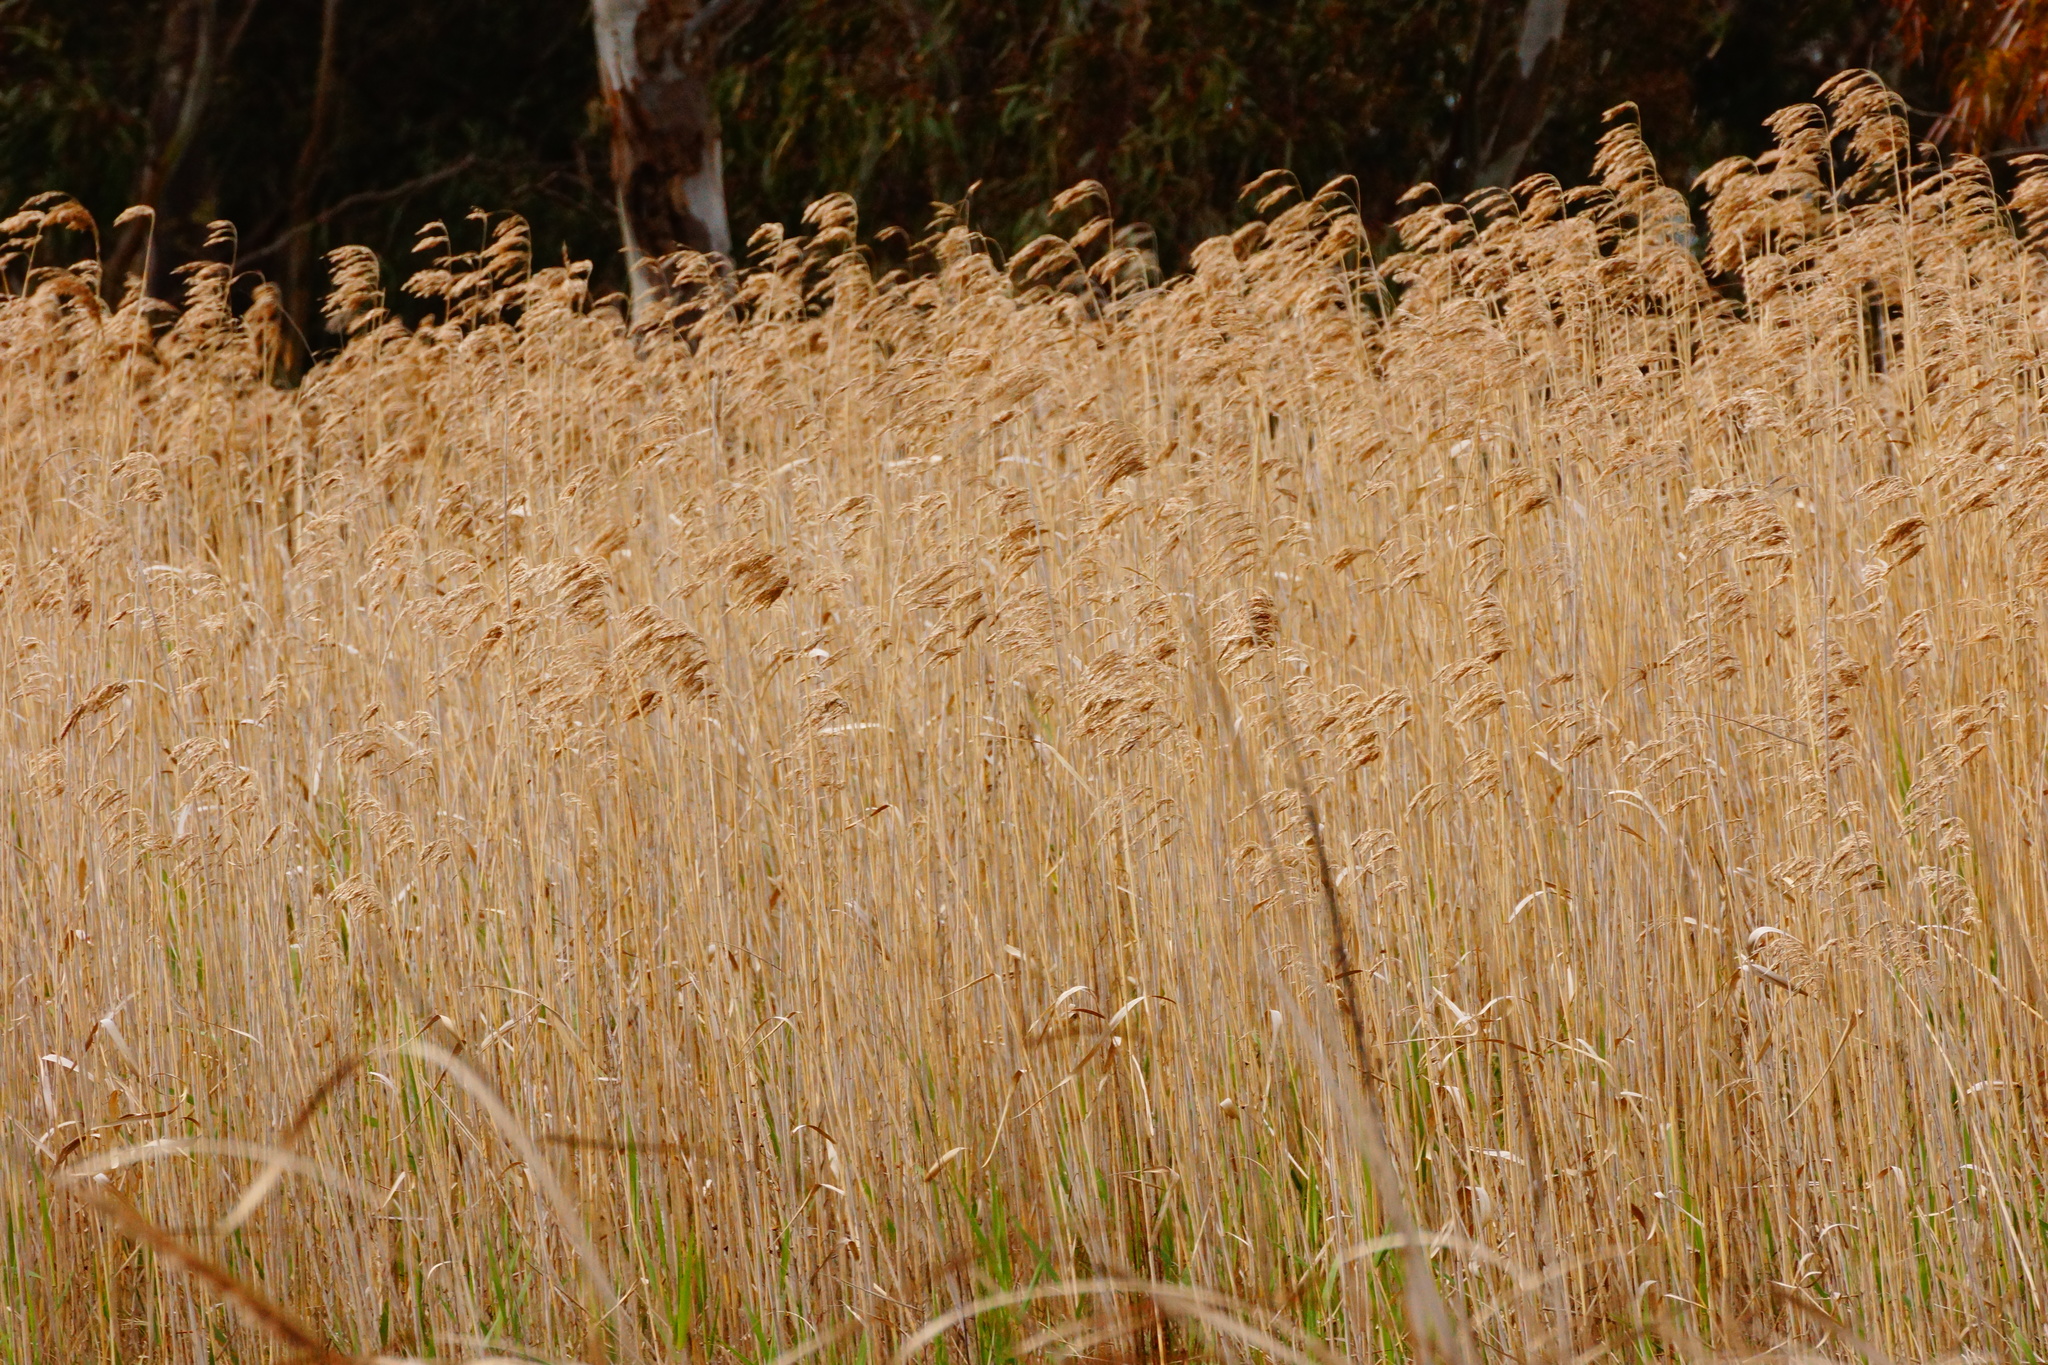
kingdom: Plantae
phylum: Tracheophyta
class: Liliopsida
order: Poales
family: Poaceae
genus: Phragmites
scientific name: Phragmites australis
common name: Common reed
